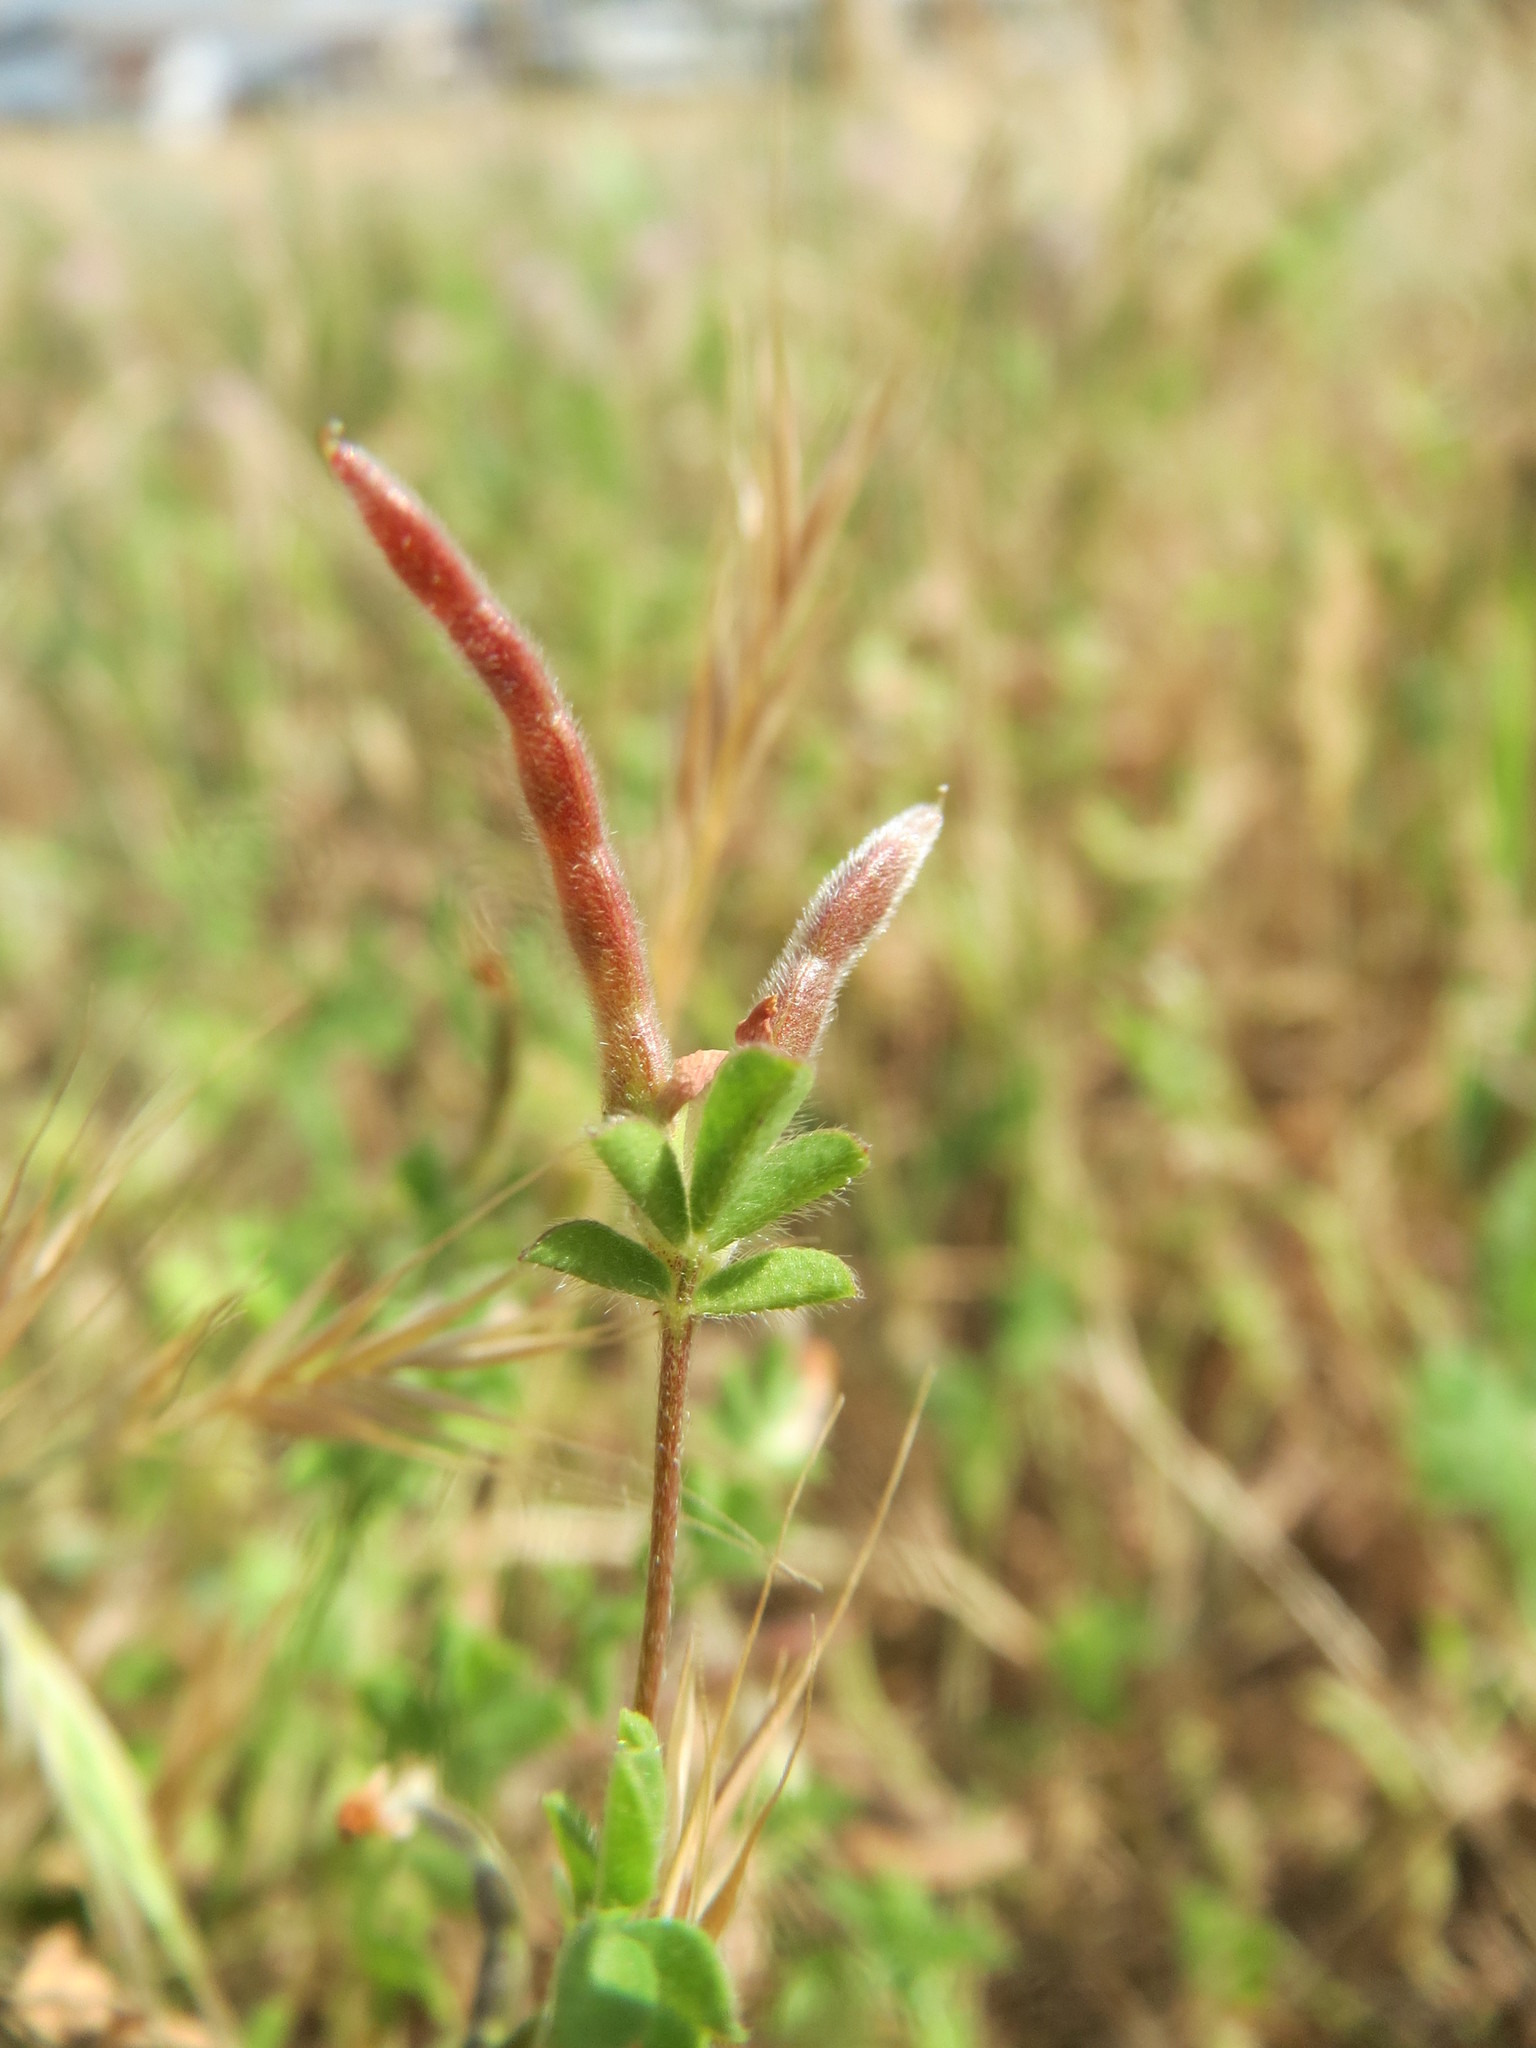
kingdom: Plantae
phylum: Tracheophyta
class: Magnoliopsida
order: Fabales
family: Fabaceae
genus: Ornithopus
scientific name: Ornithopus perpusillus
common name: Bird's-foot
